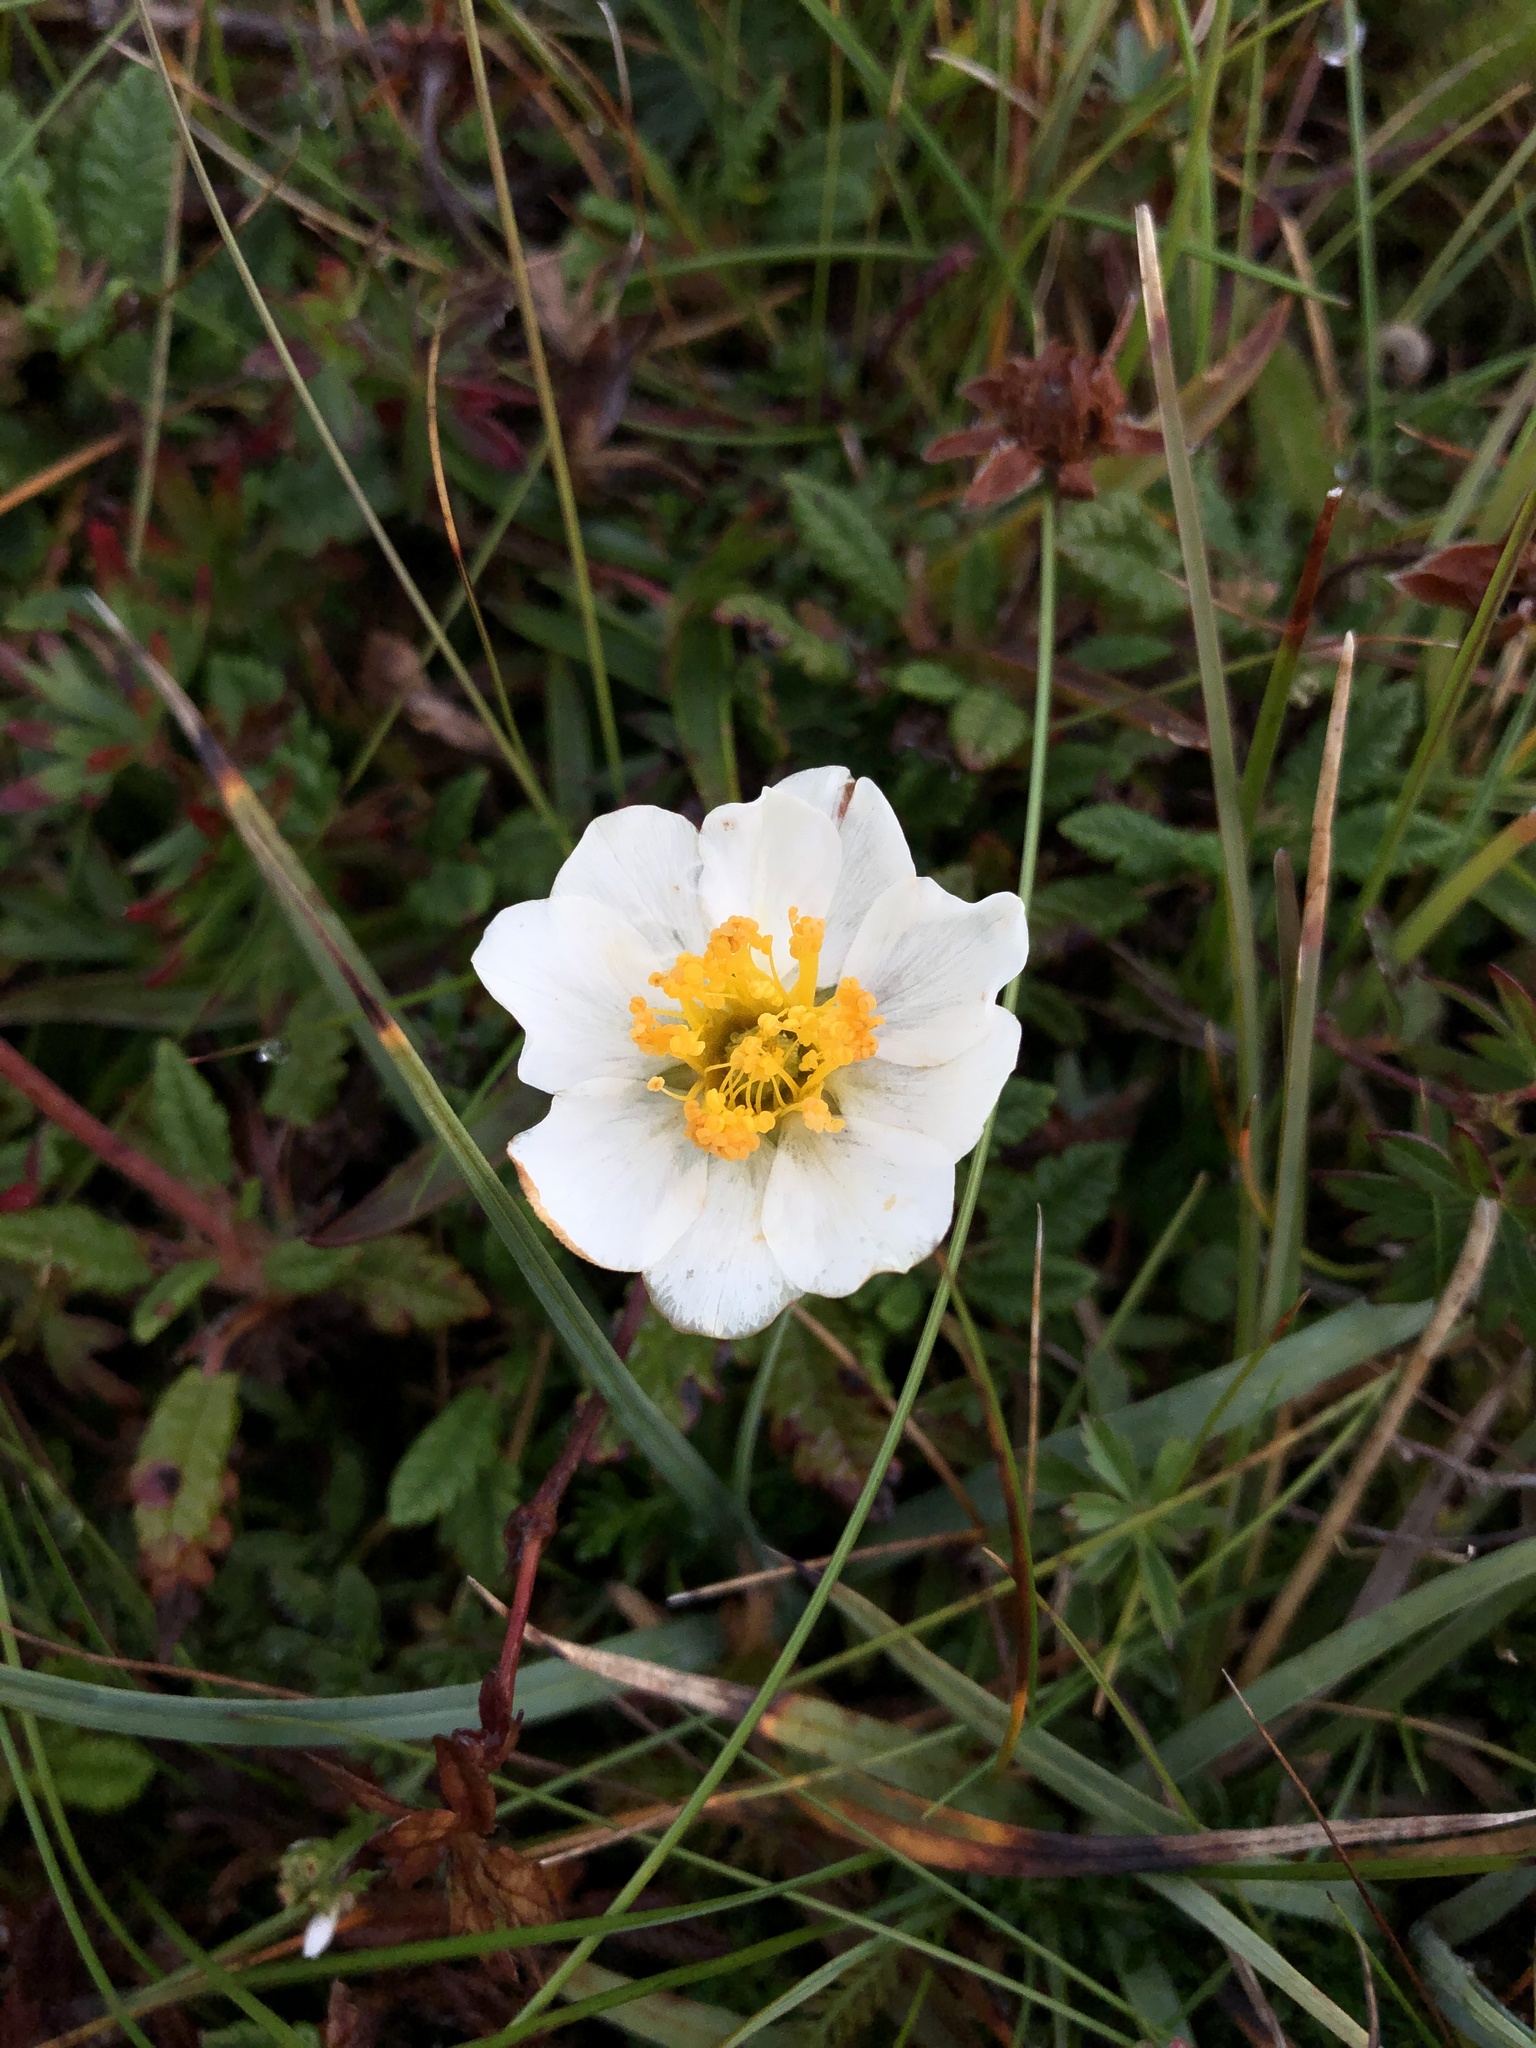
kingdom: Plantae
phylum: Tracheophyta
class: Magnoliopsida
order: Rosales
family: Rosaceae
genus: Dryas
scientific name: Dryas octopetala
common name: Eight-petal mountain-avens
